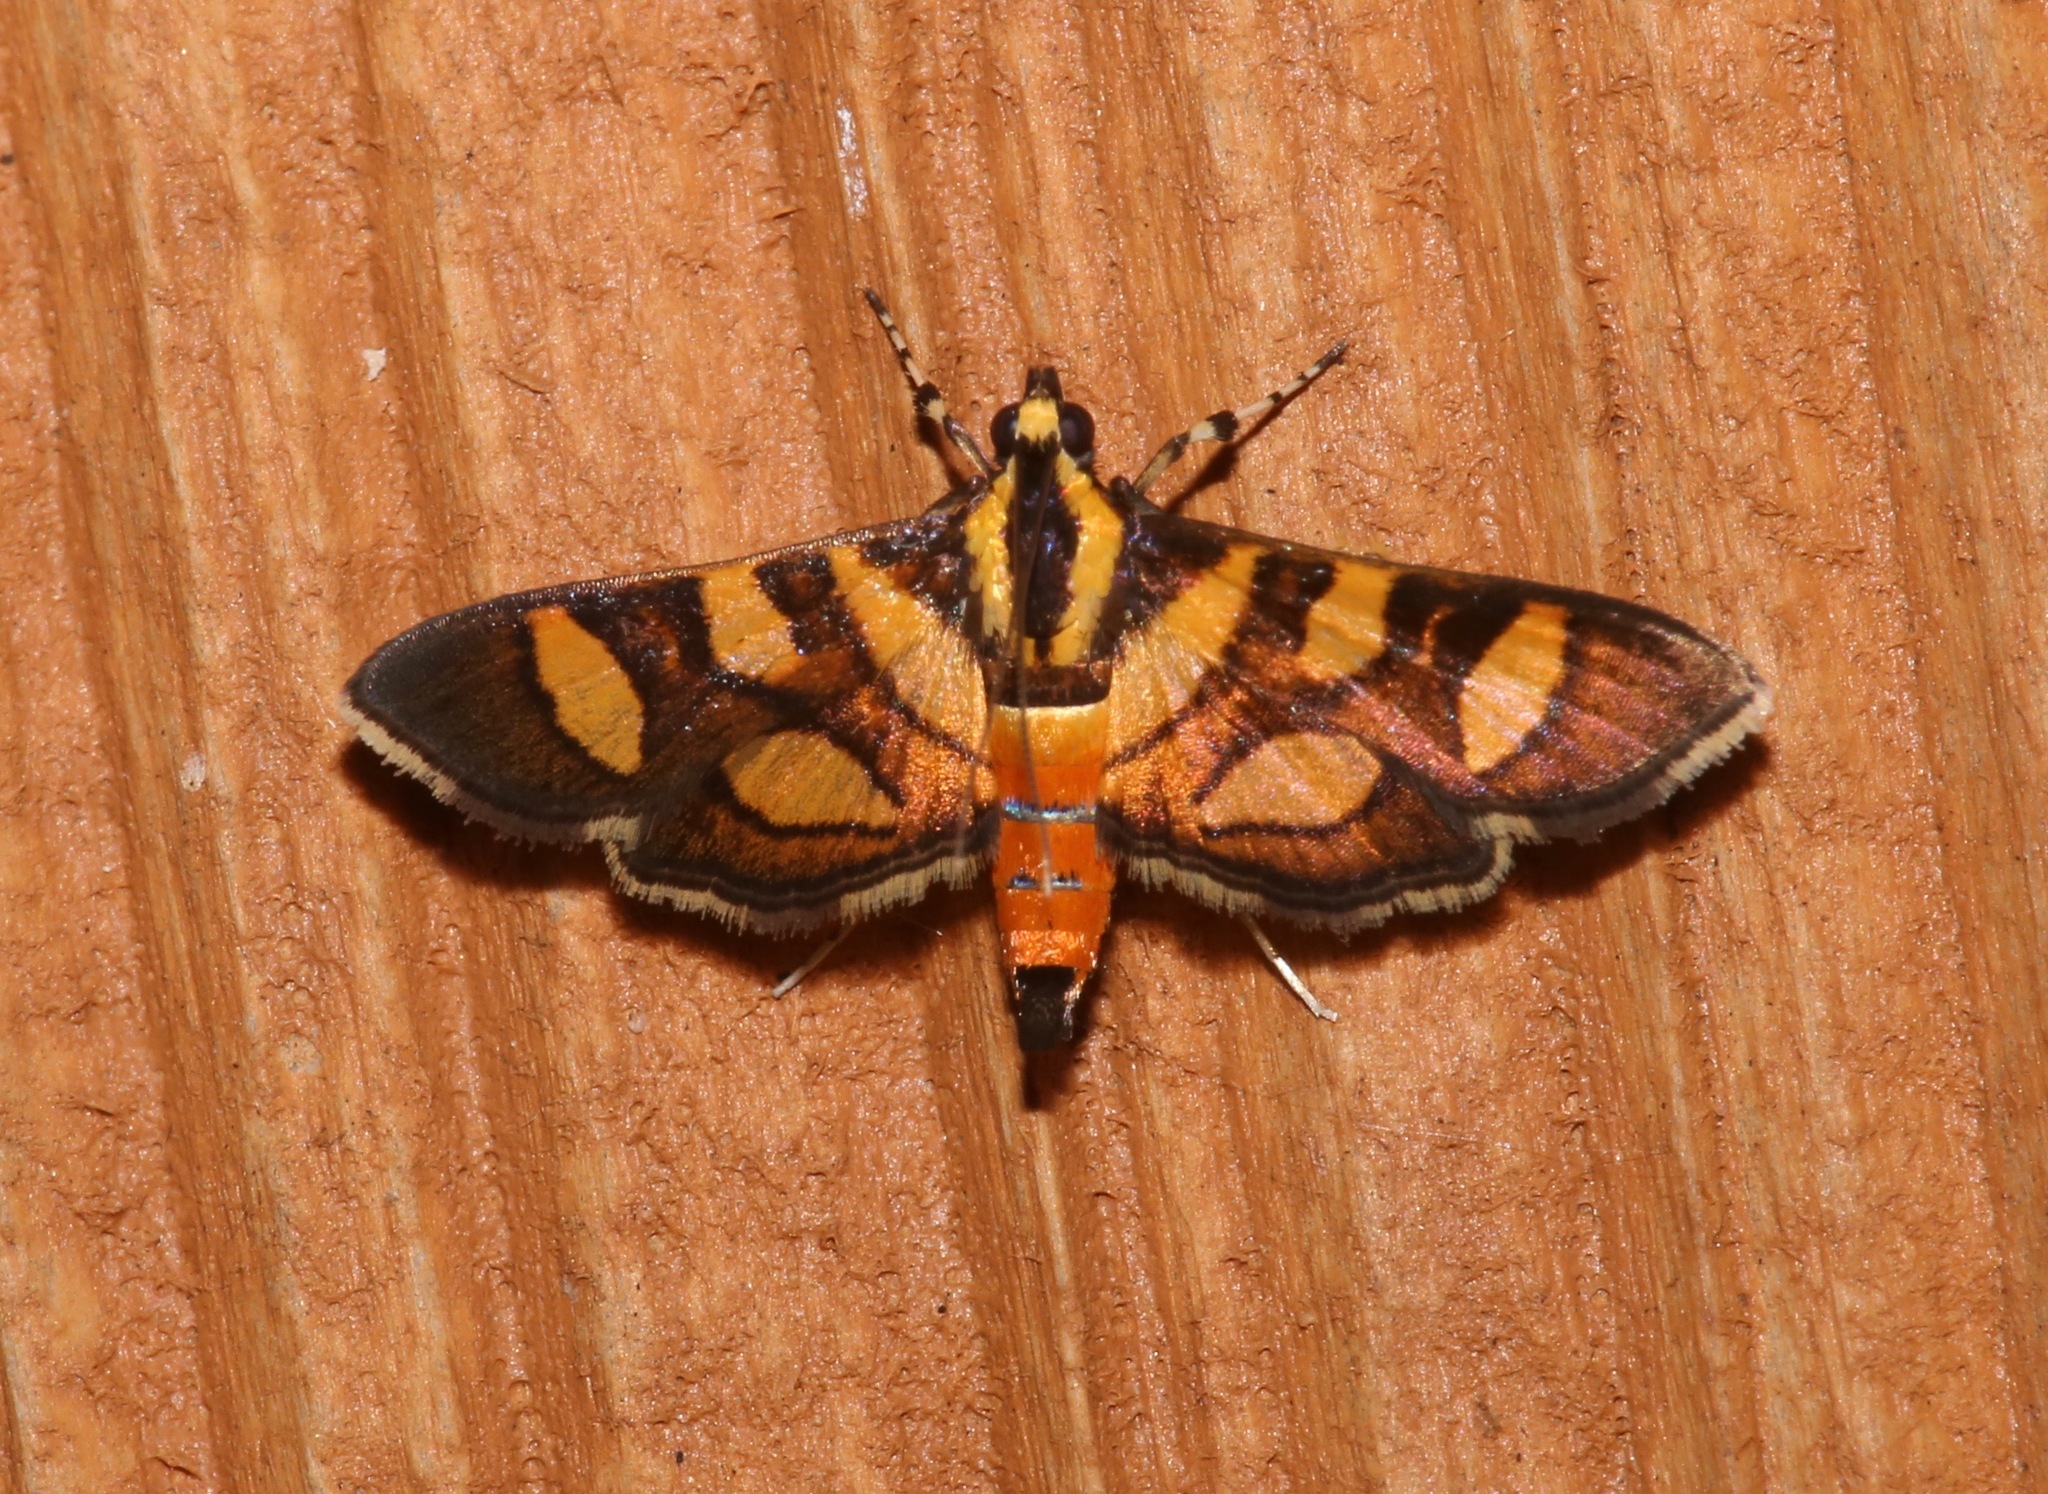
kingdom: Animalia
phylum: Arthropoda
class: Insecta
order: Lepidoptera
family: Crambidae
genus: Syngamia
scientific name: Syngamia florella
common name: Orange-spotted flower moth
